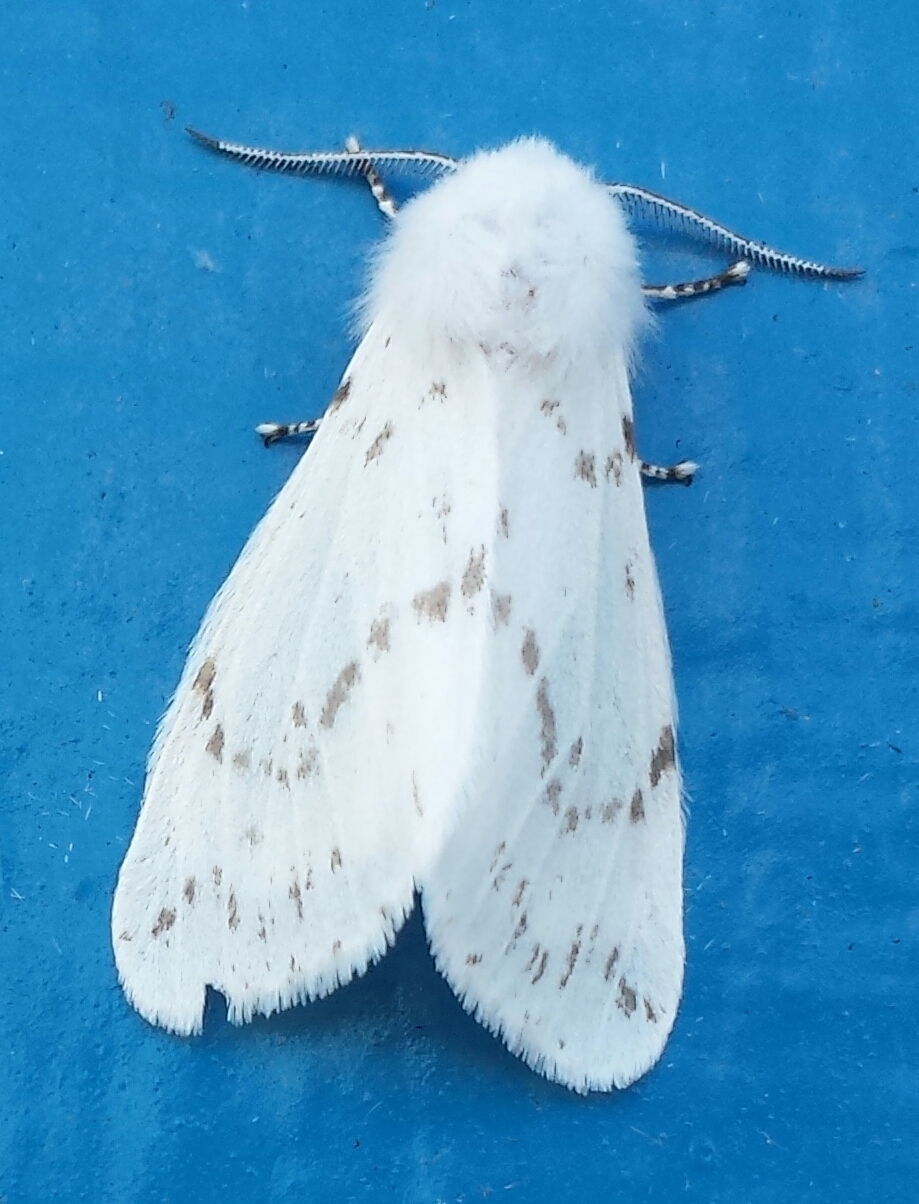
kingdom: Animalia
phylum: Arthropoda
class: Insecta
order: Lepidoptera
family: Erebidae
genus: Hyphantria
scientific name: Hyphantria cunea
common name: American white moth
